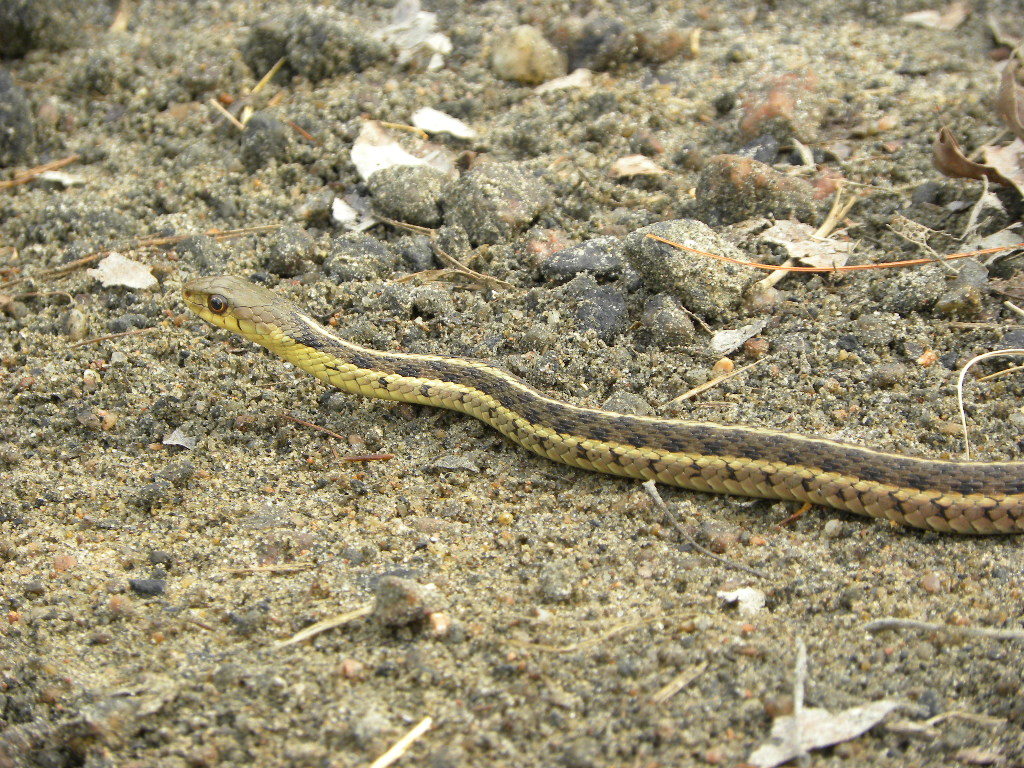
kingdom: Animalia
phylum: Chordata
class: Squamata
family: Colubridae
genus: Thamnophis
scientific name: Thamnophis sirtalis
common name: Common garter snake
